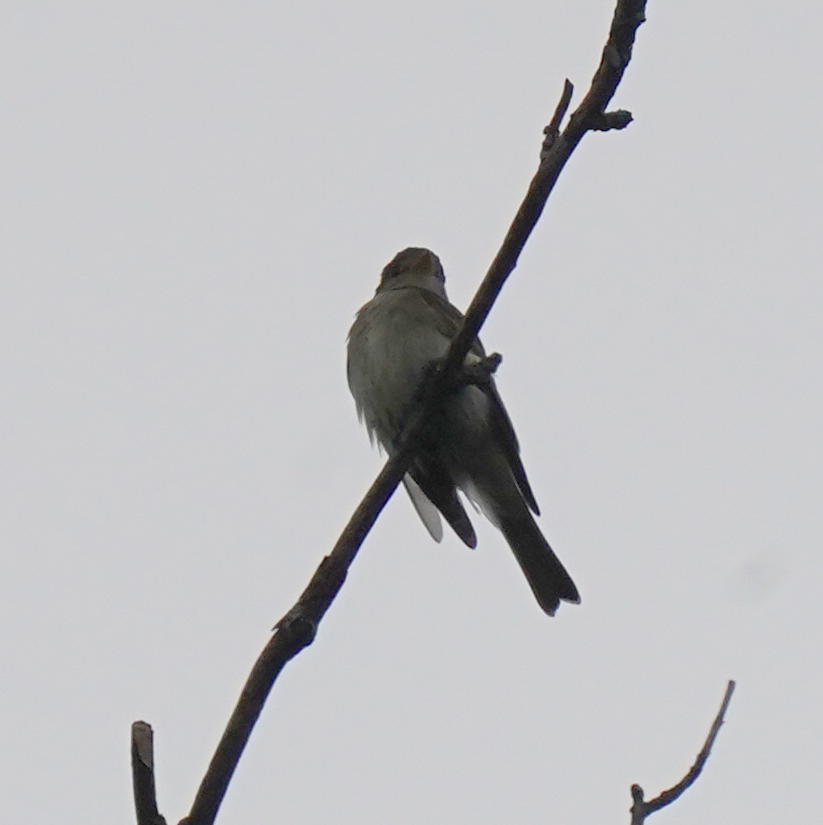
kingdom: Animalia
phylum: Chordata
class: Aves
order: Passeriformes
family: Tyrannidae
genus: Contopus
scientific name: Contopus virens
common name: Eastern wood-pewee
